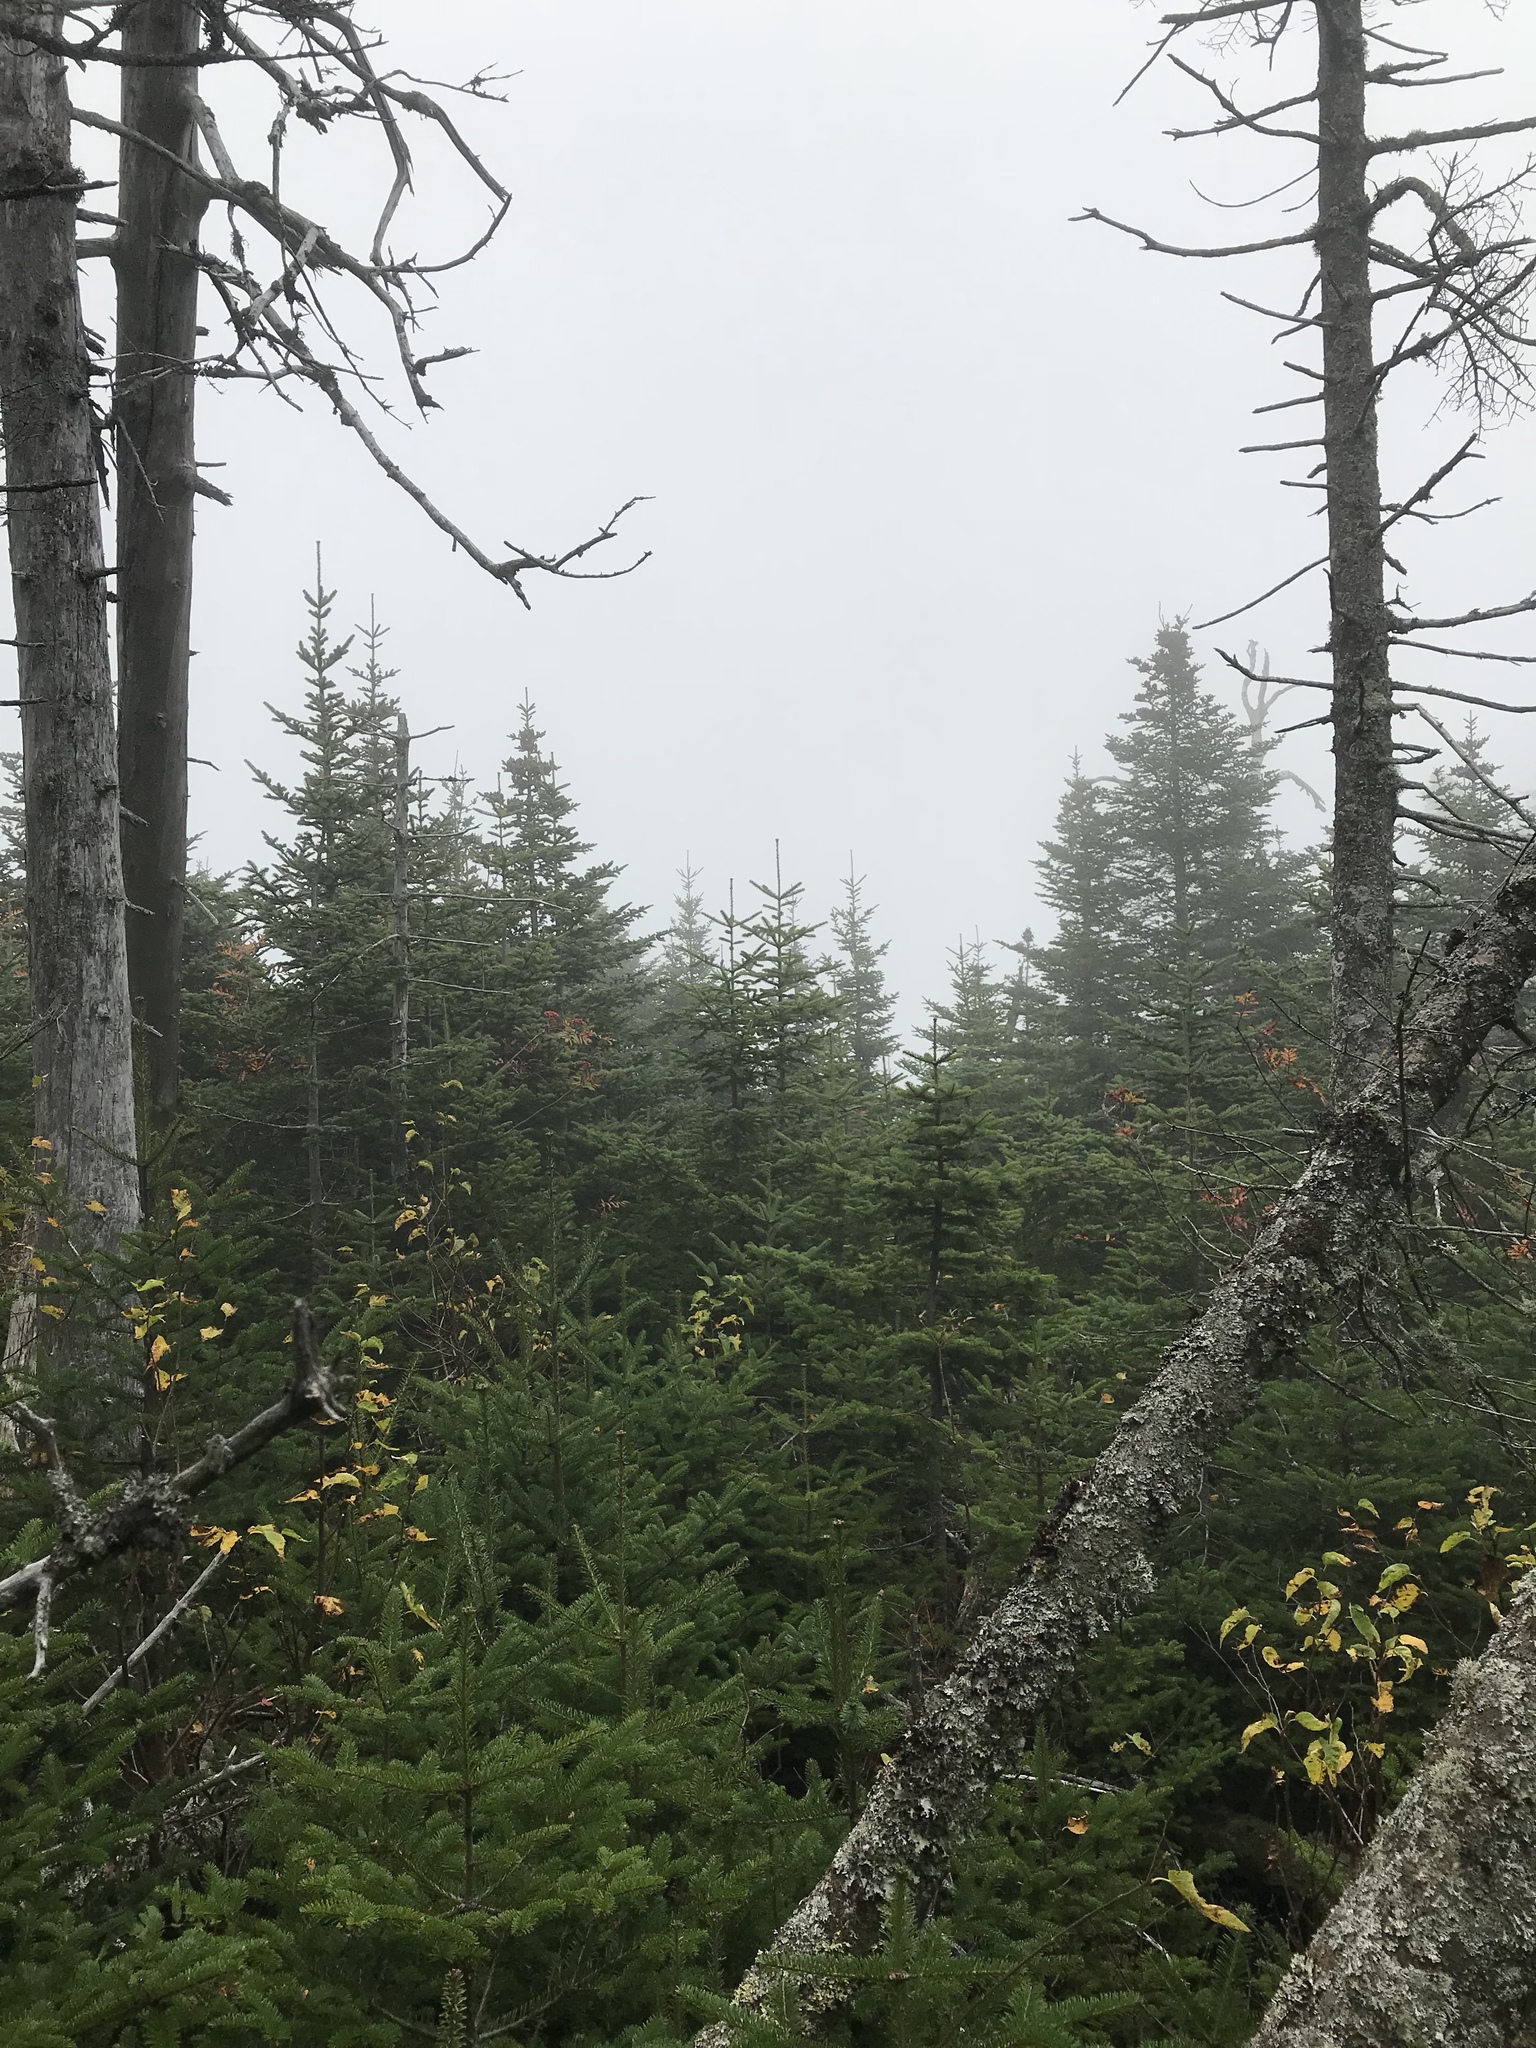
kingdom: Plantae
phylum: Tracheophyta
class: Pinopsida
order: Pinales
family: Pinaceae
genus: Abies
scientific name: Abies balsamea
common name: Balsam fir
